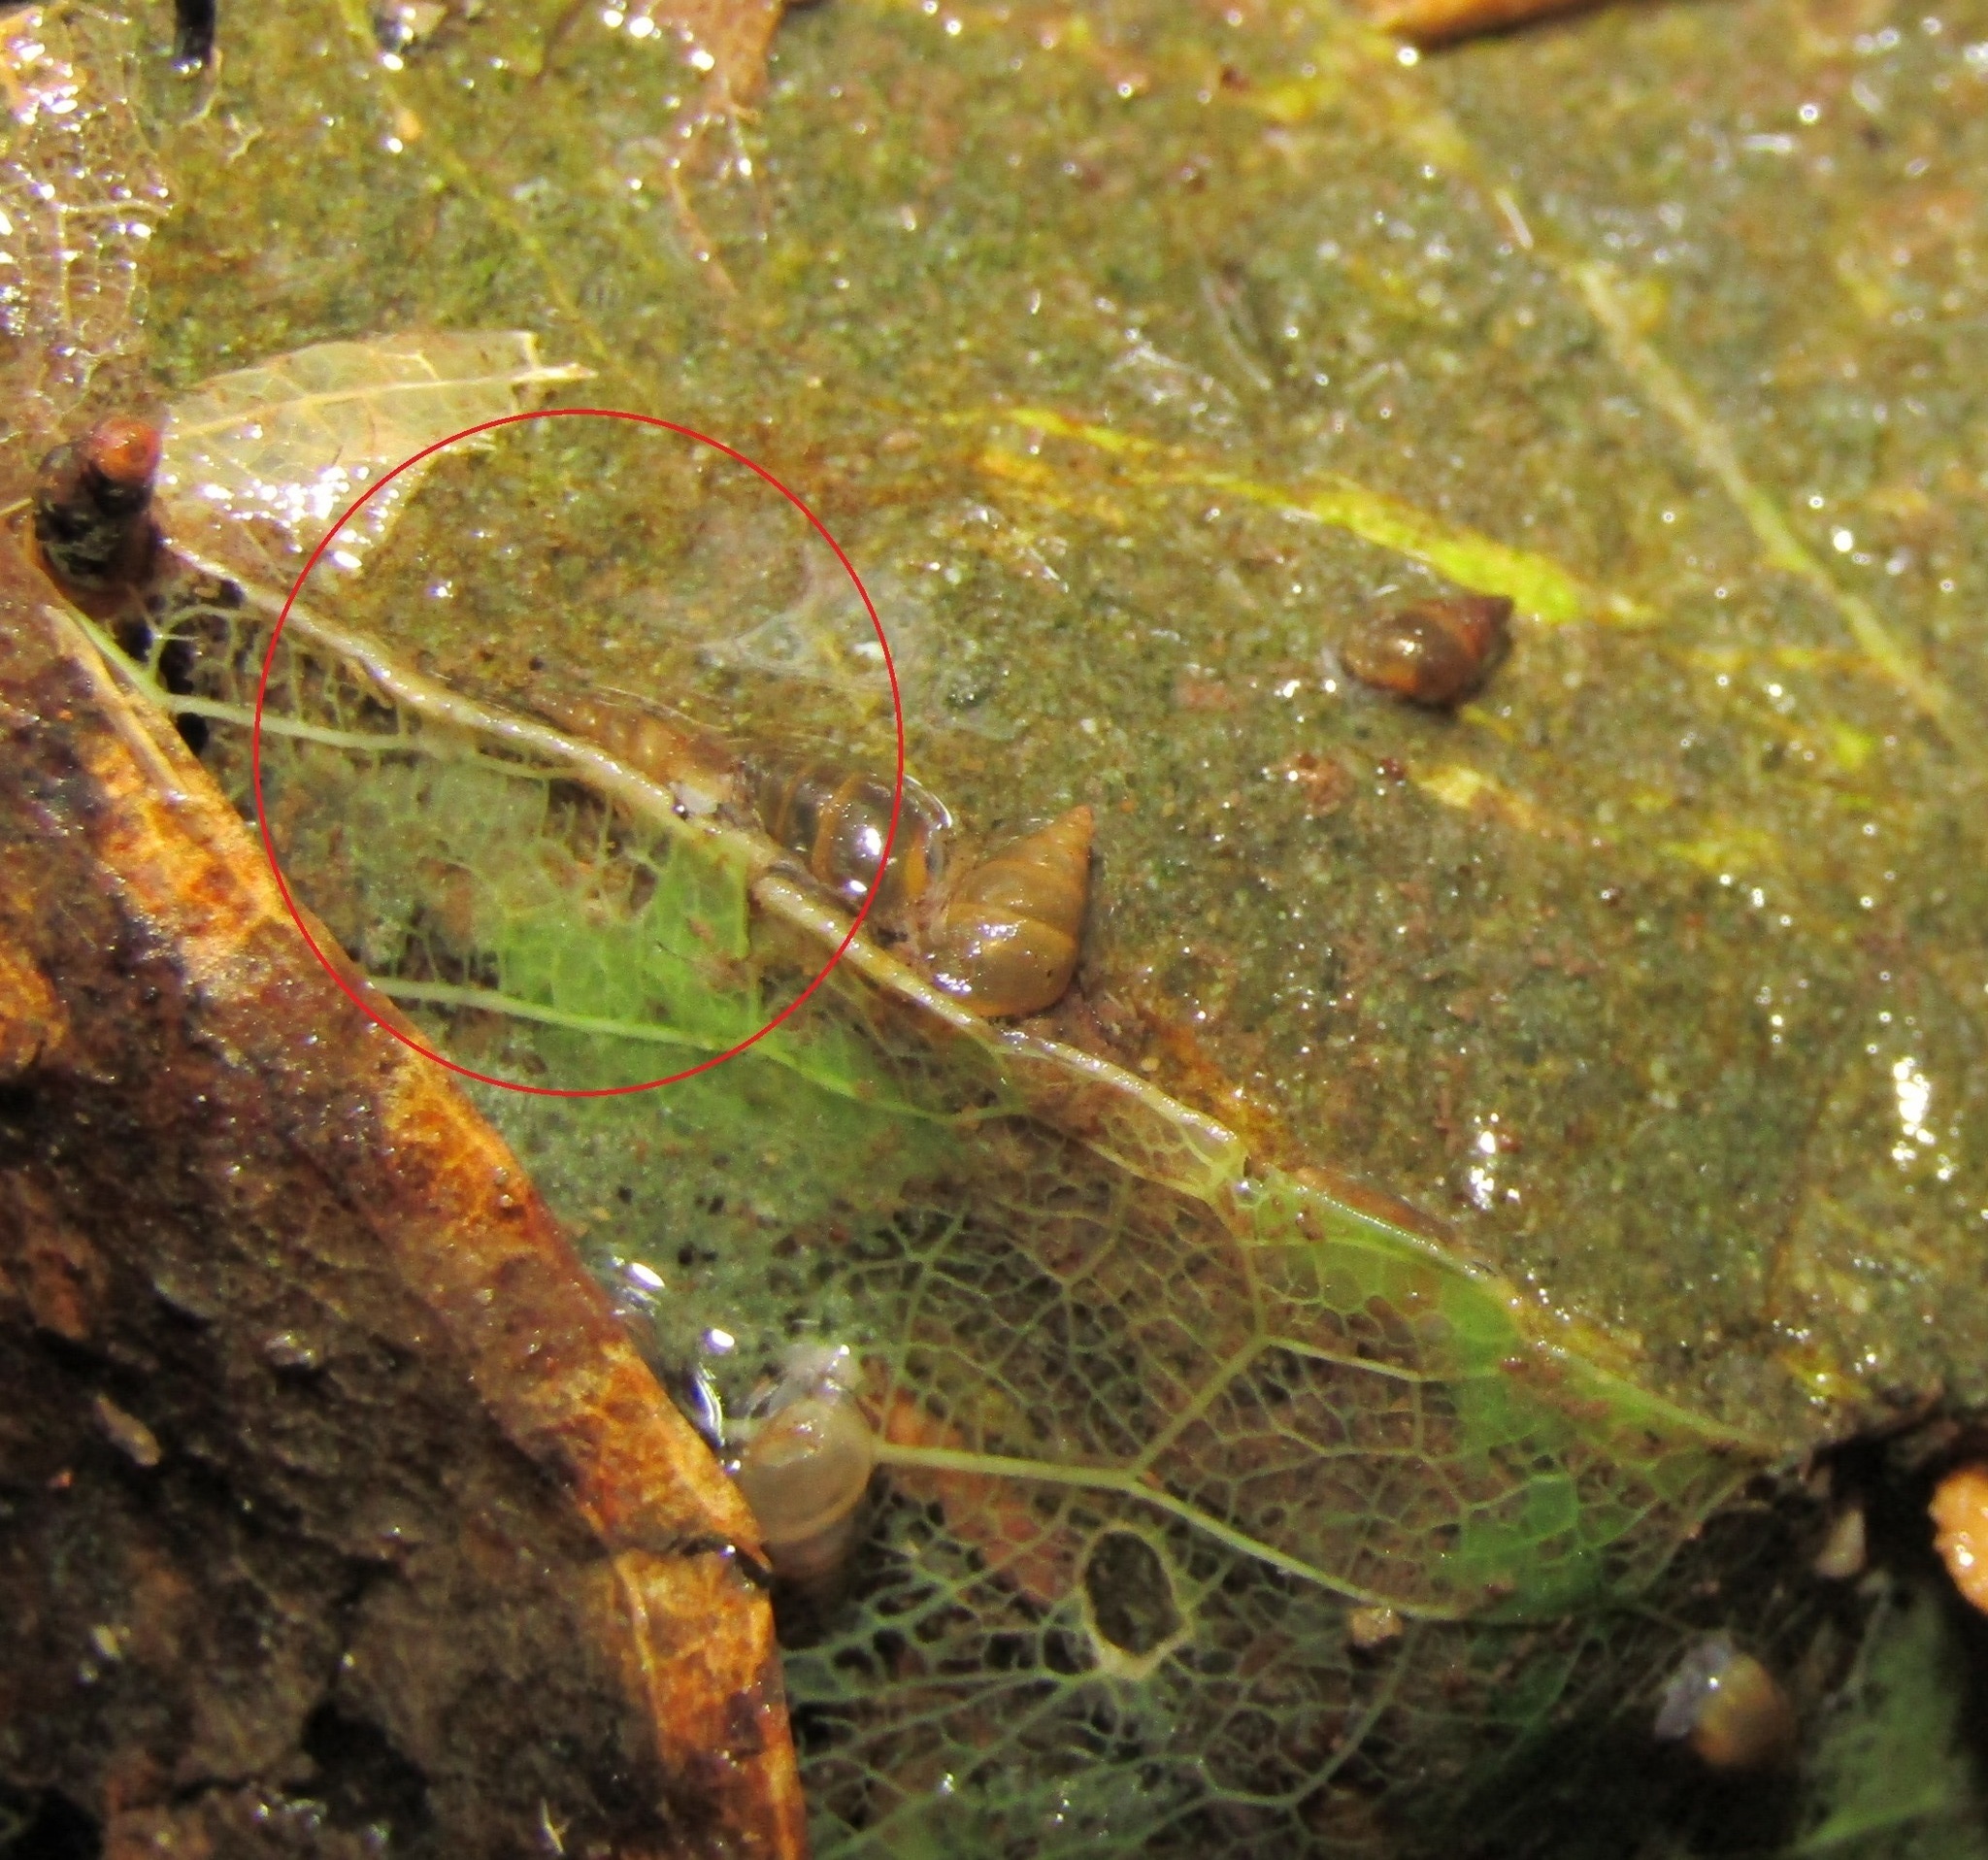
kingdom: Animalia
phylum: Mollusca
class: Gastropoda
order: Littorinimorpha
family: Tateidae
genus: Potamopyrgus
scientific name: Potamopyrgus oppidanus
